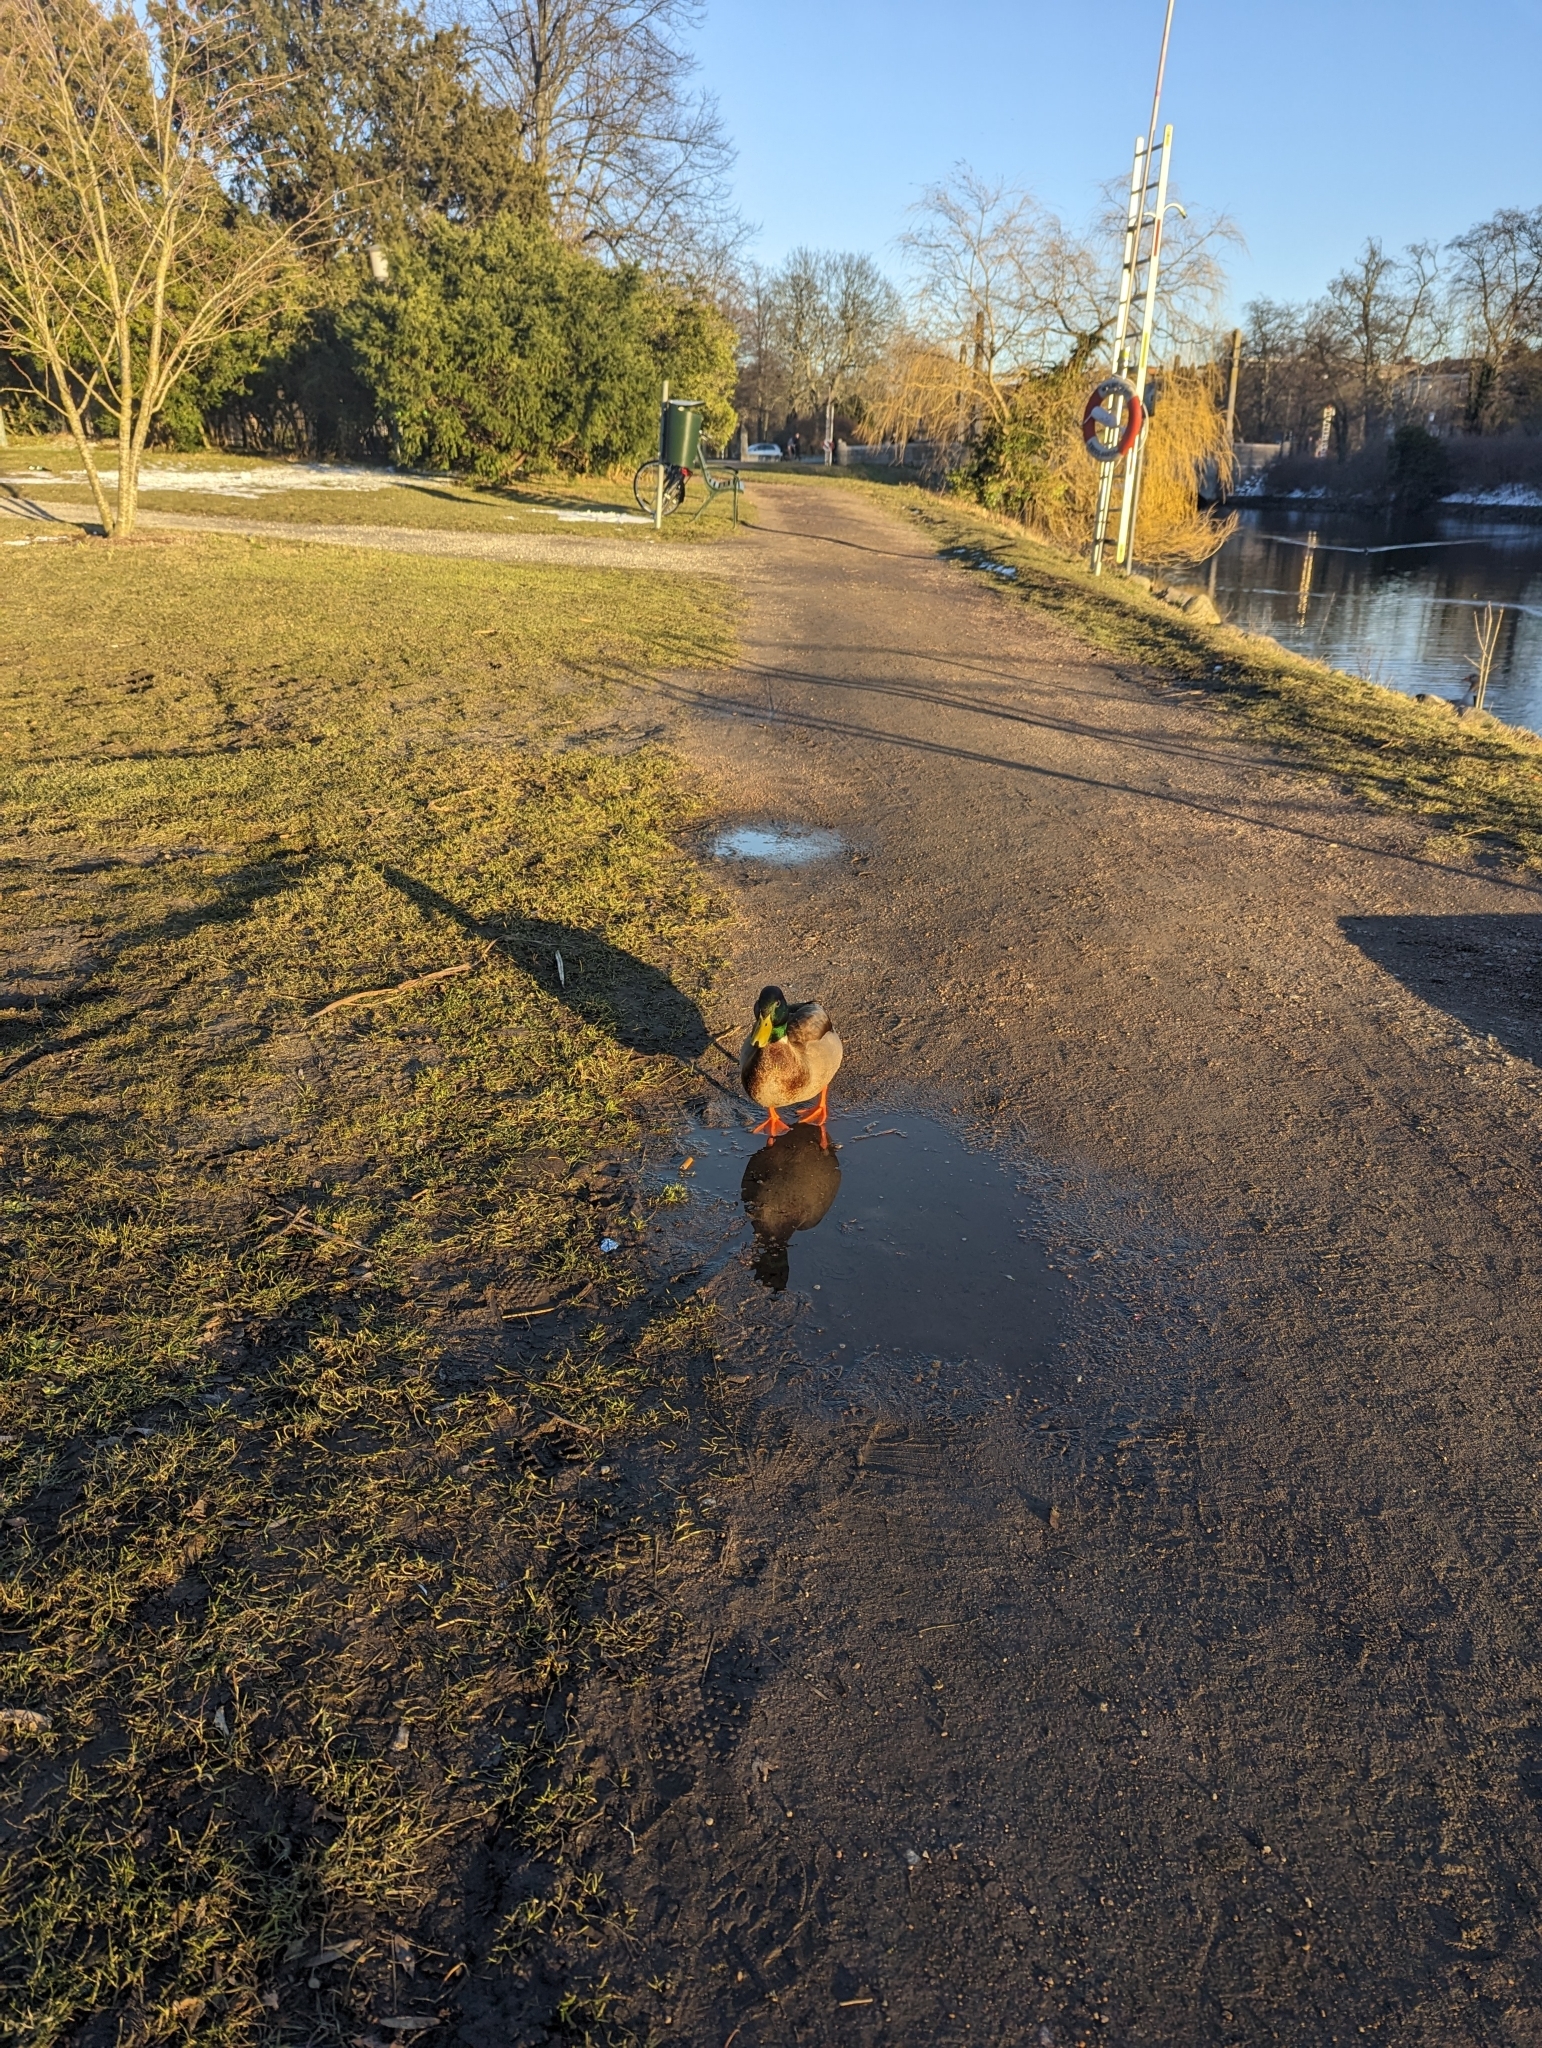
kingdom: Animalia
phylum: Chordata
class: Aves
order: Anseriformes
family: Anatidae
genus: Anas
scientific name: Anas platyrhynchos
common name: Mallard
